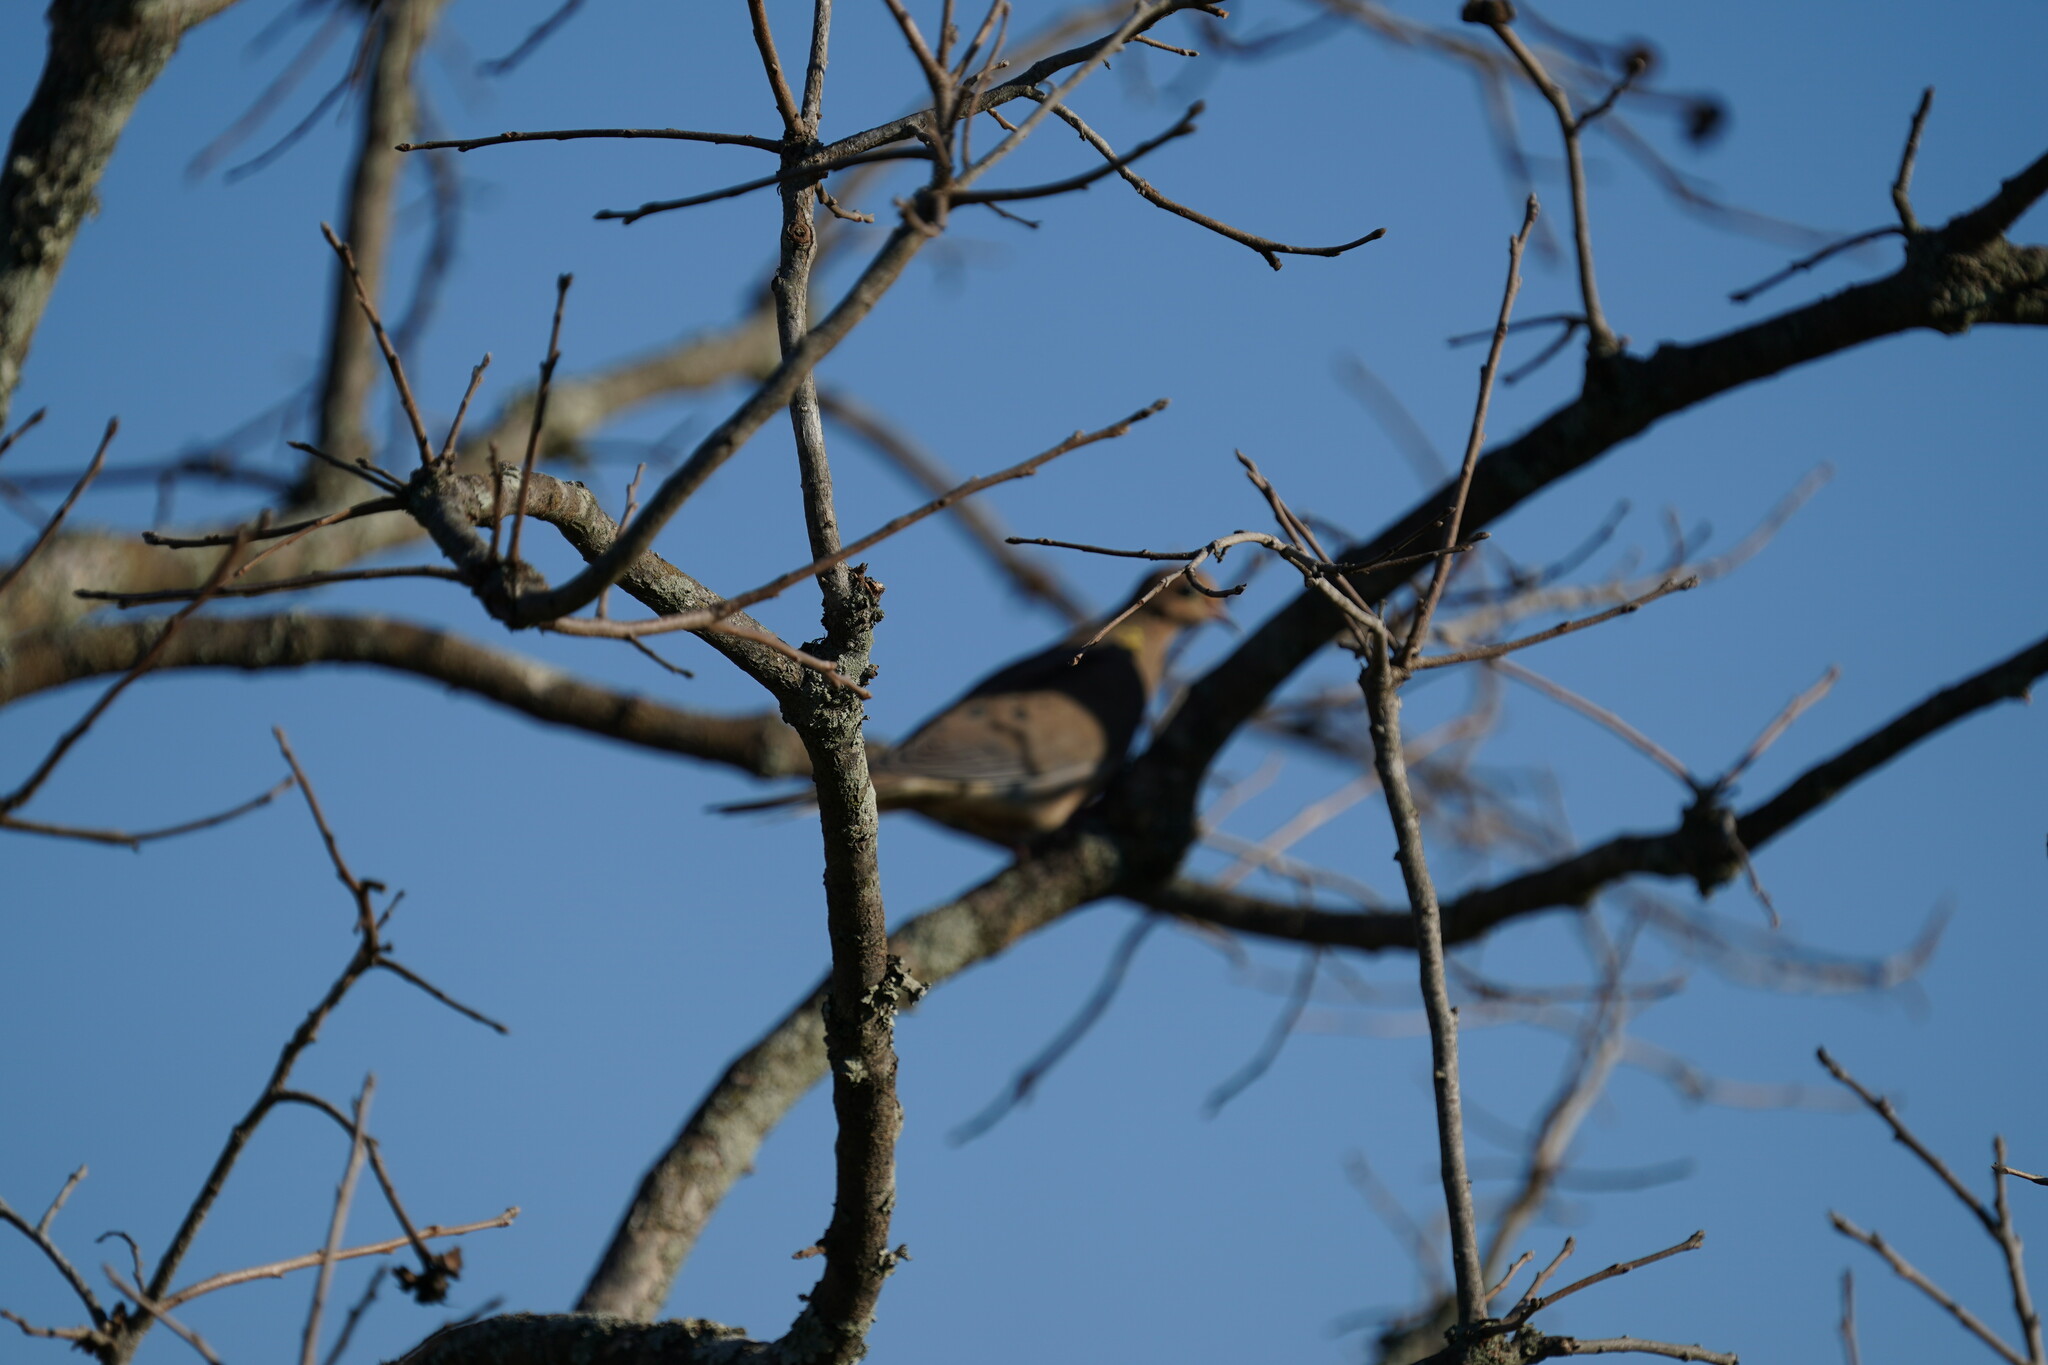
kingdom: Animalia
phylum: Chordata
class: Aves
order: Columbiformes
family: Columbidae
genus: Zenaida
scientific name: Zenaida macroura
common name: Mourning dove
